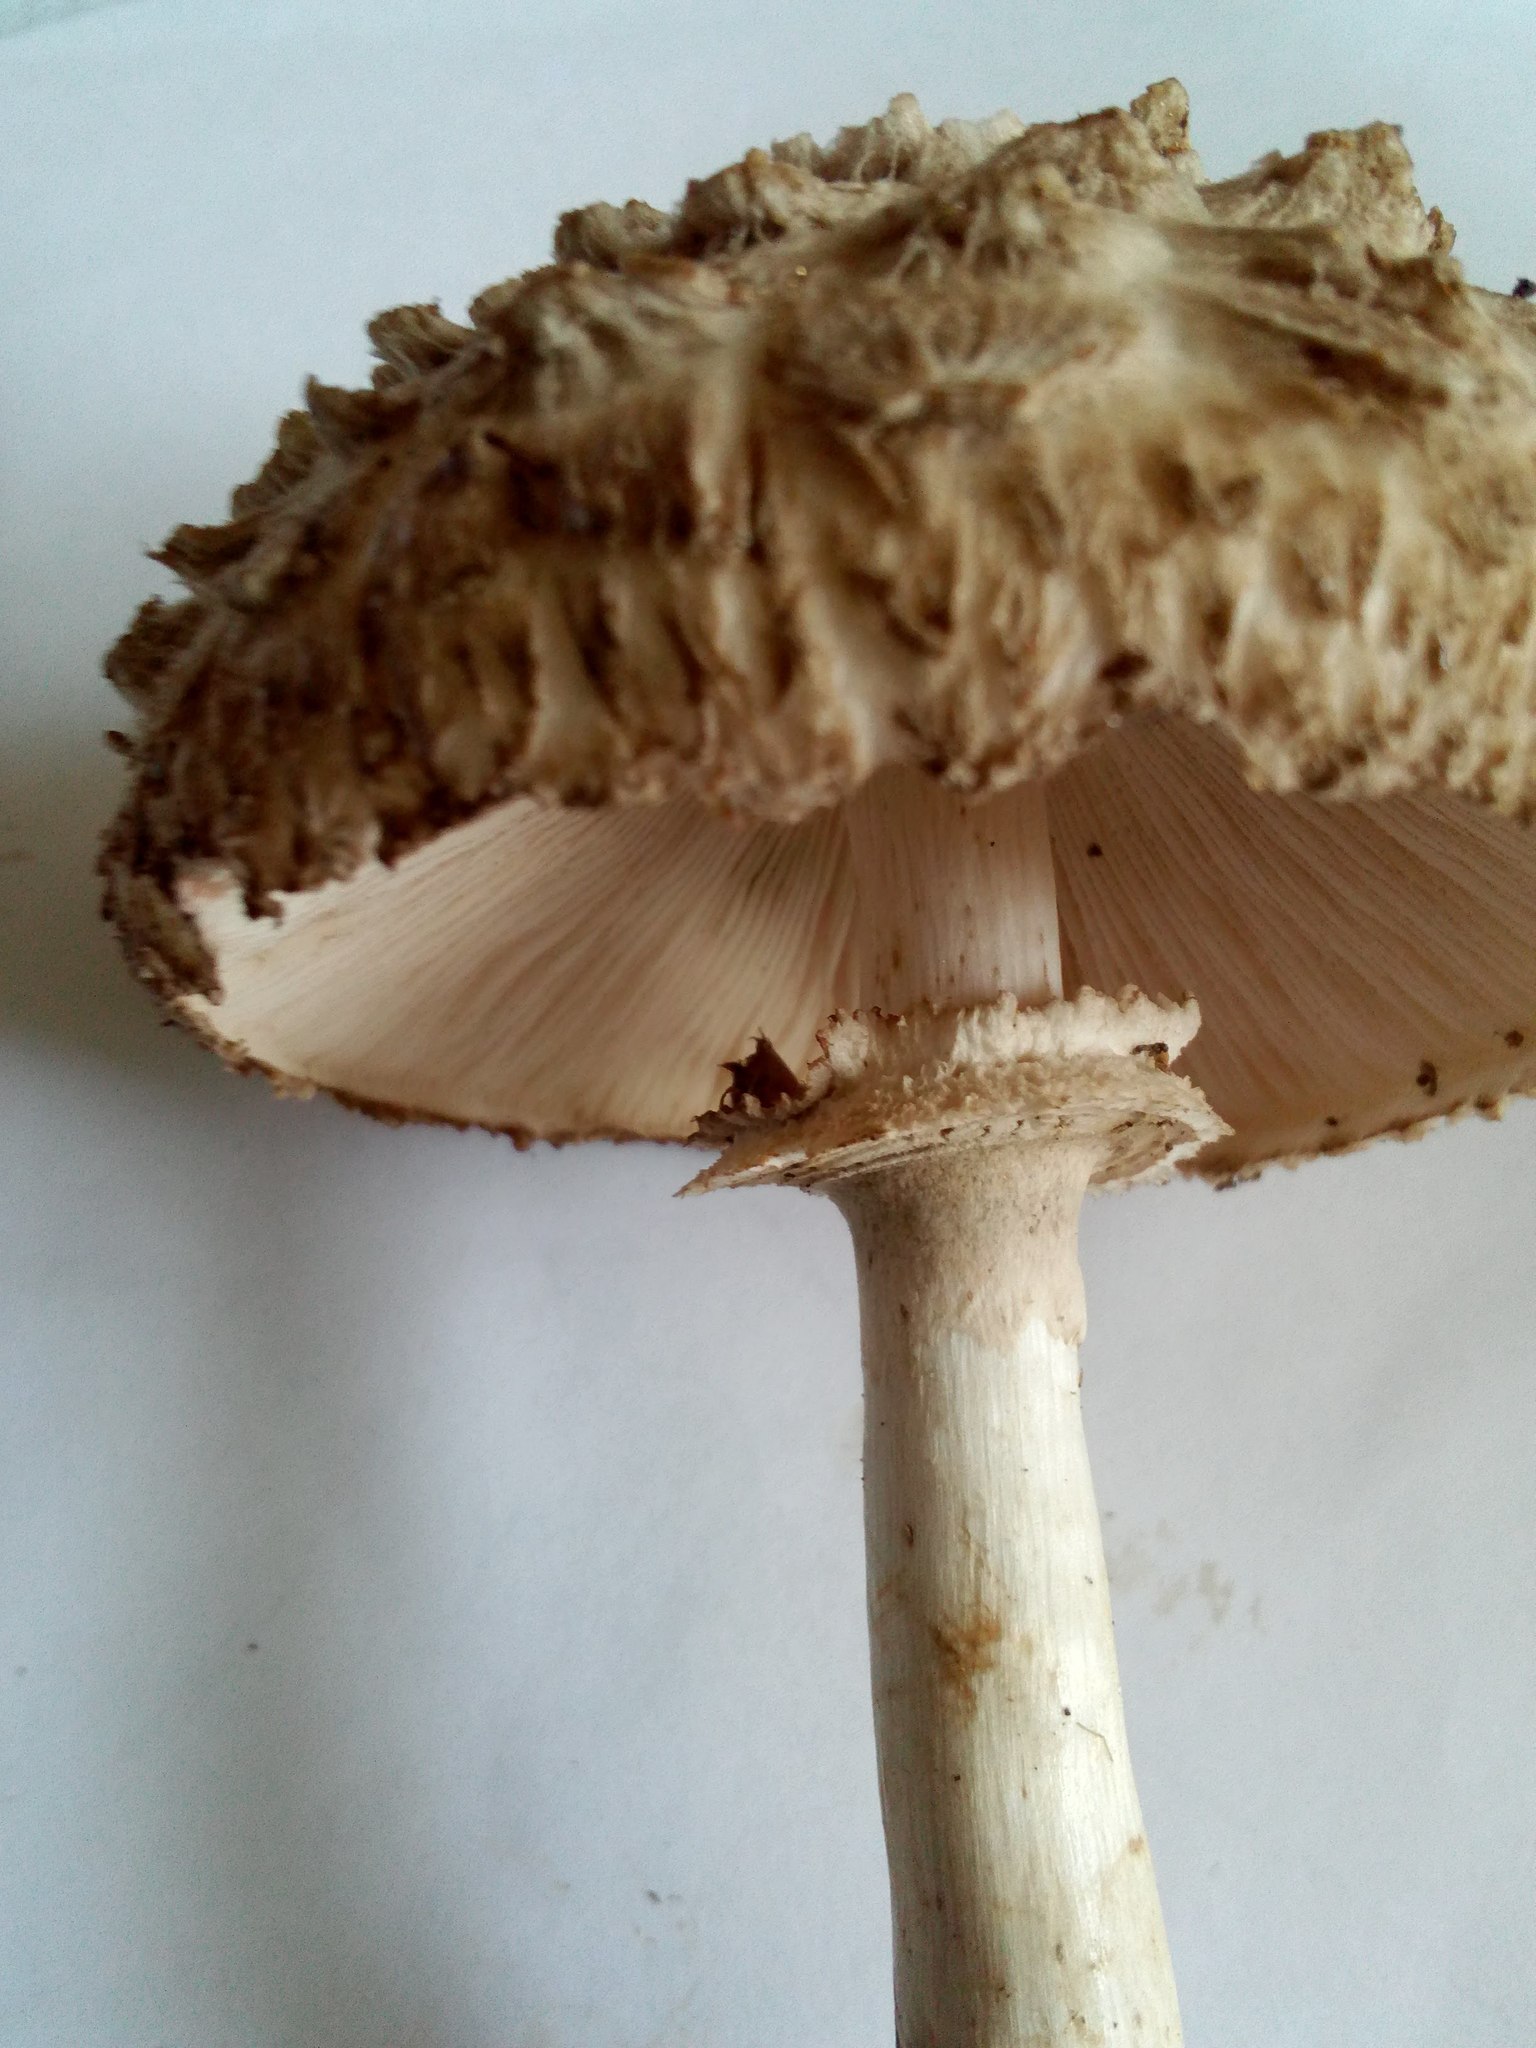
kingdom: Fungi
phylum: Basidiomycota
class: Agaricomycetes
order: Agaricales
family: Agaricaceae
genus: Chlorophyllum
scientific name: Chlorophyllum olivieri
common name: Conifer parasol
